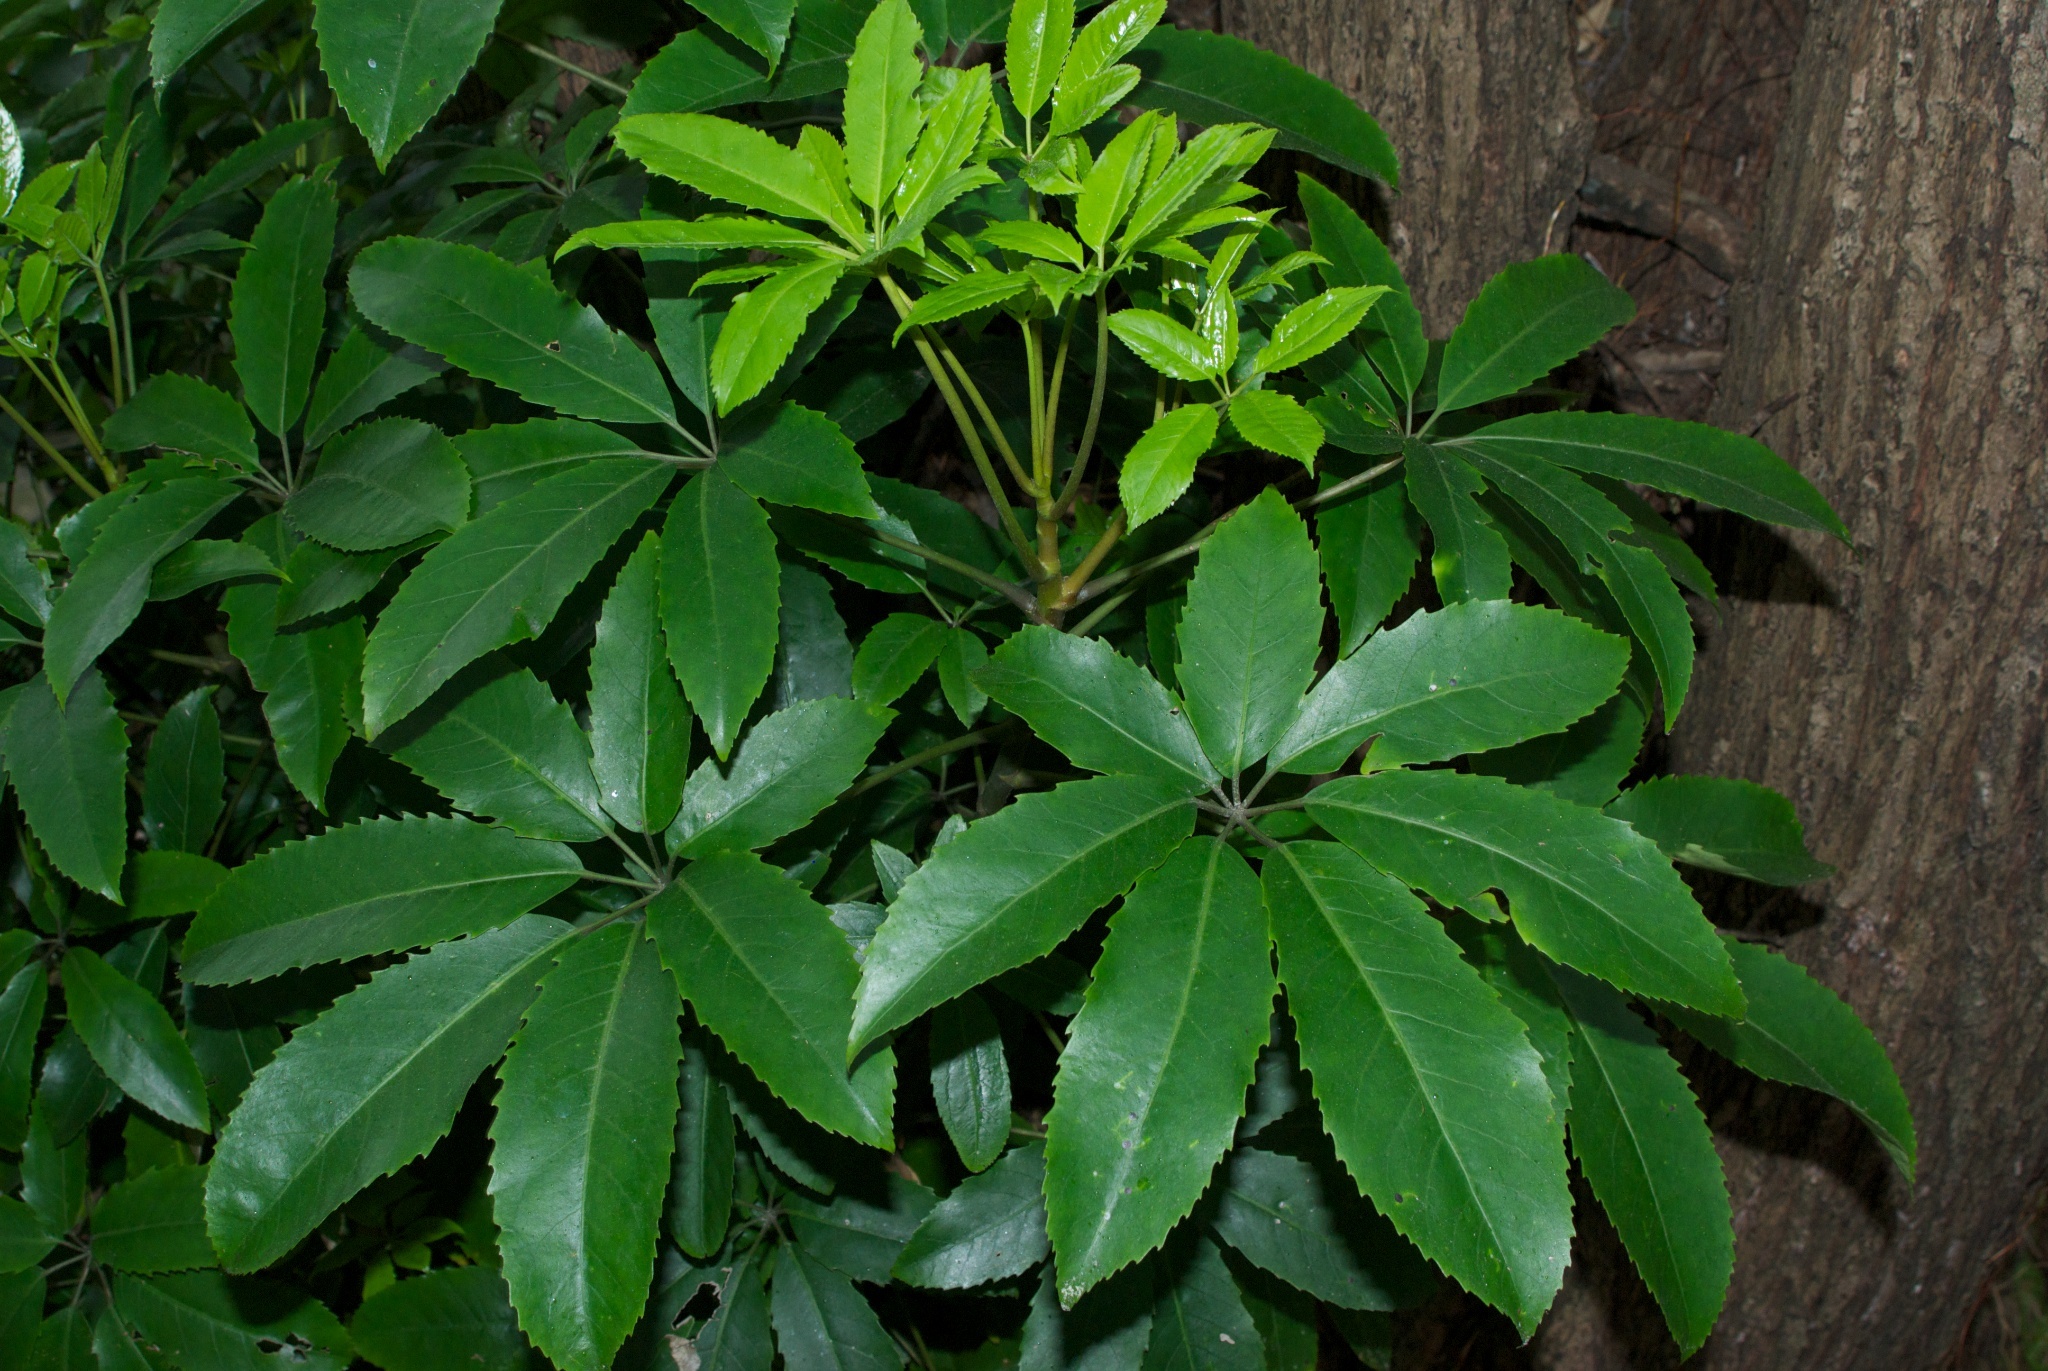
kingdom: Plantae
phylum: Tracheophyta
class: Magnoliopsida
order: Apiales
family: Araliaceae
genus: Neopanax
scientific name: Neopanax arboreus
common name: Five-fingers
